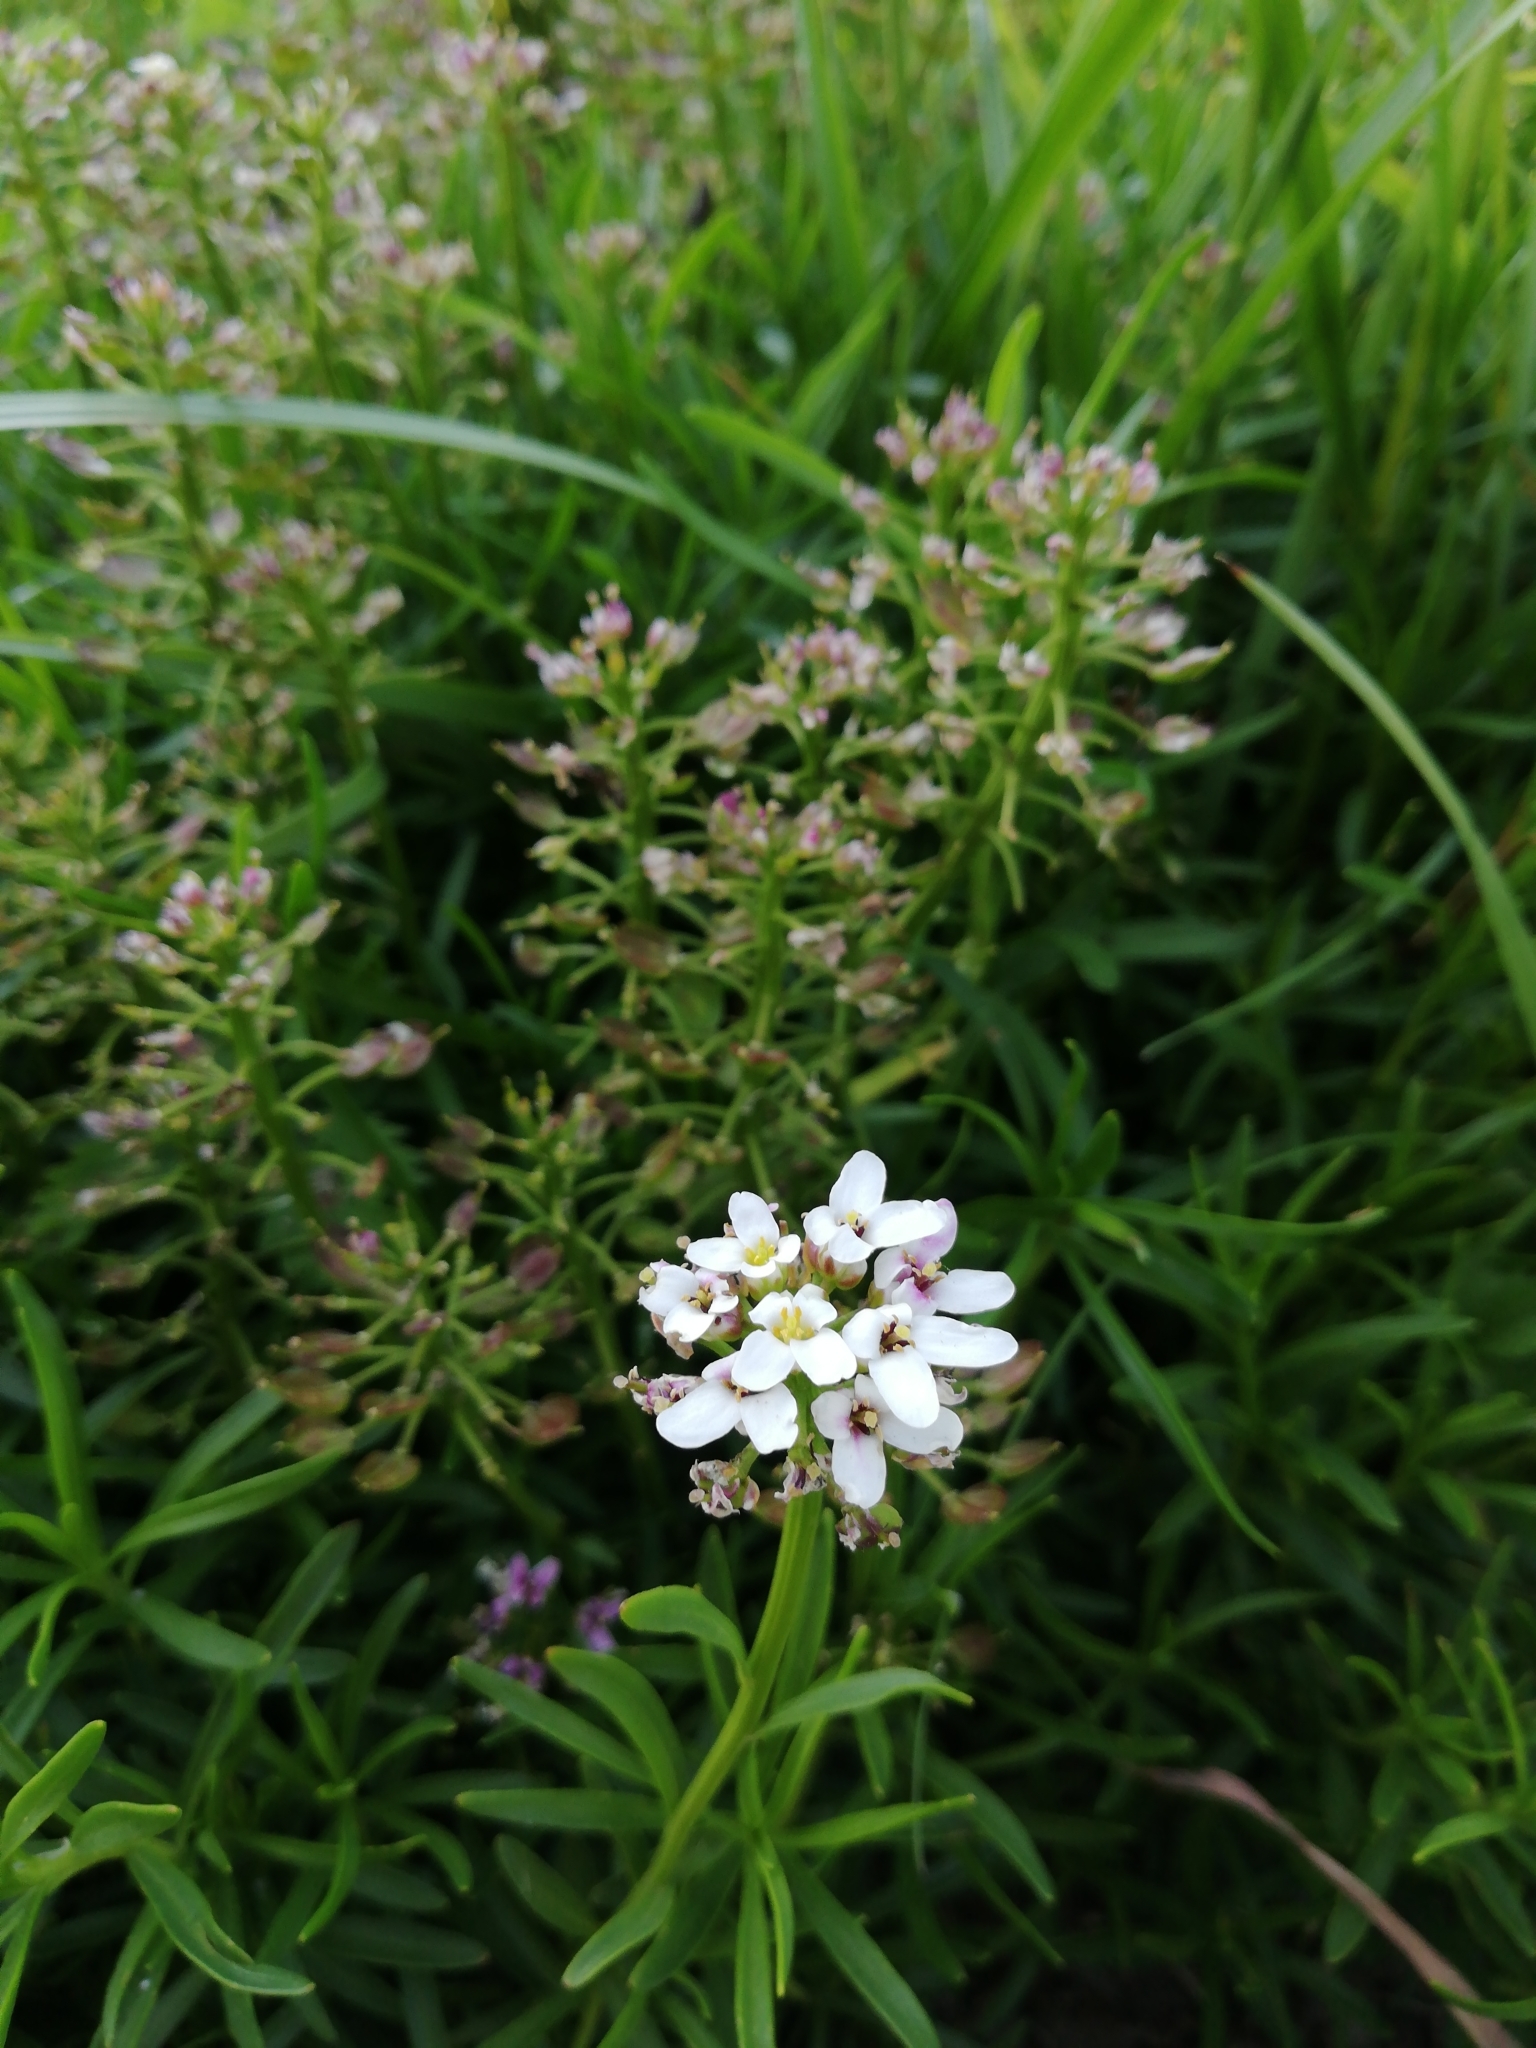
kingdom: Plantae
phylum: Tracheophyta
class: Magnoliopsida
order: Brassicales
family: Brassicaceae
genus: Lobularia
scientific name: Lobularia maritima
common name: Sweet alison
